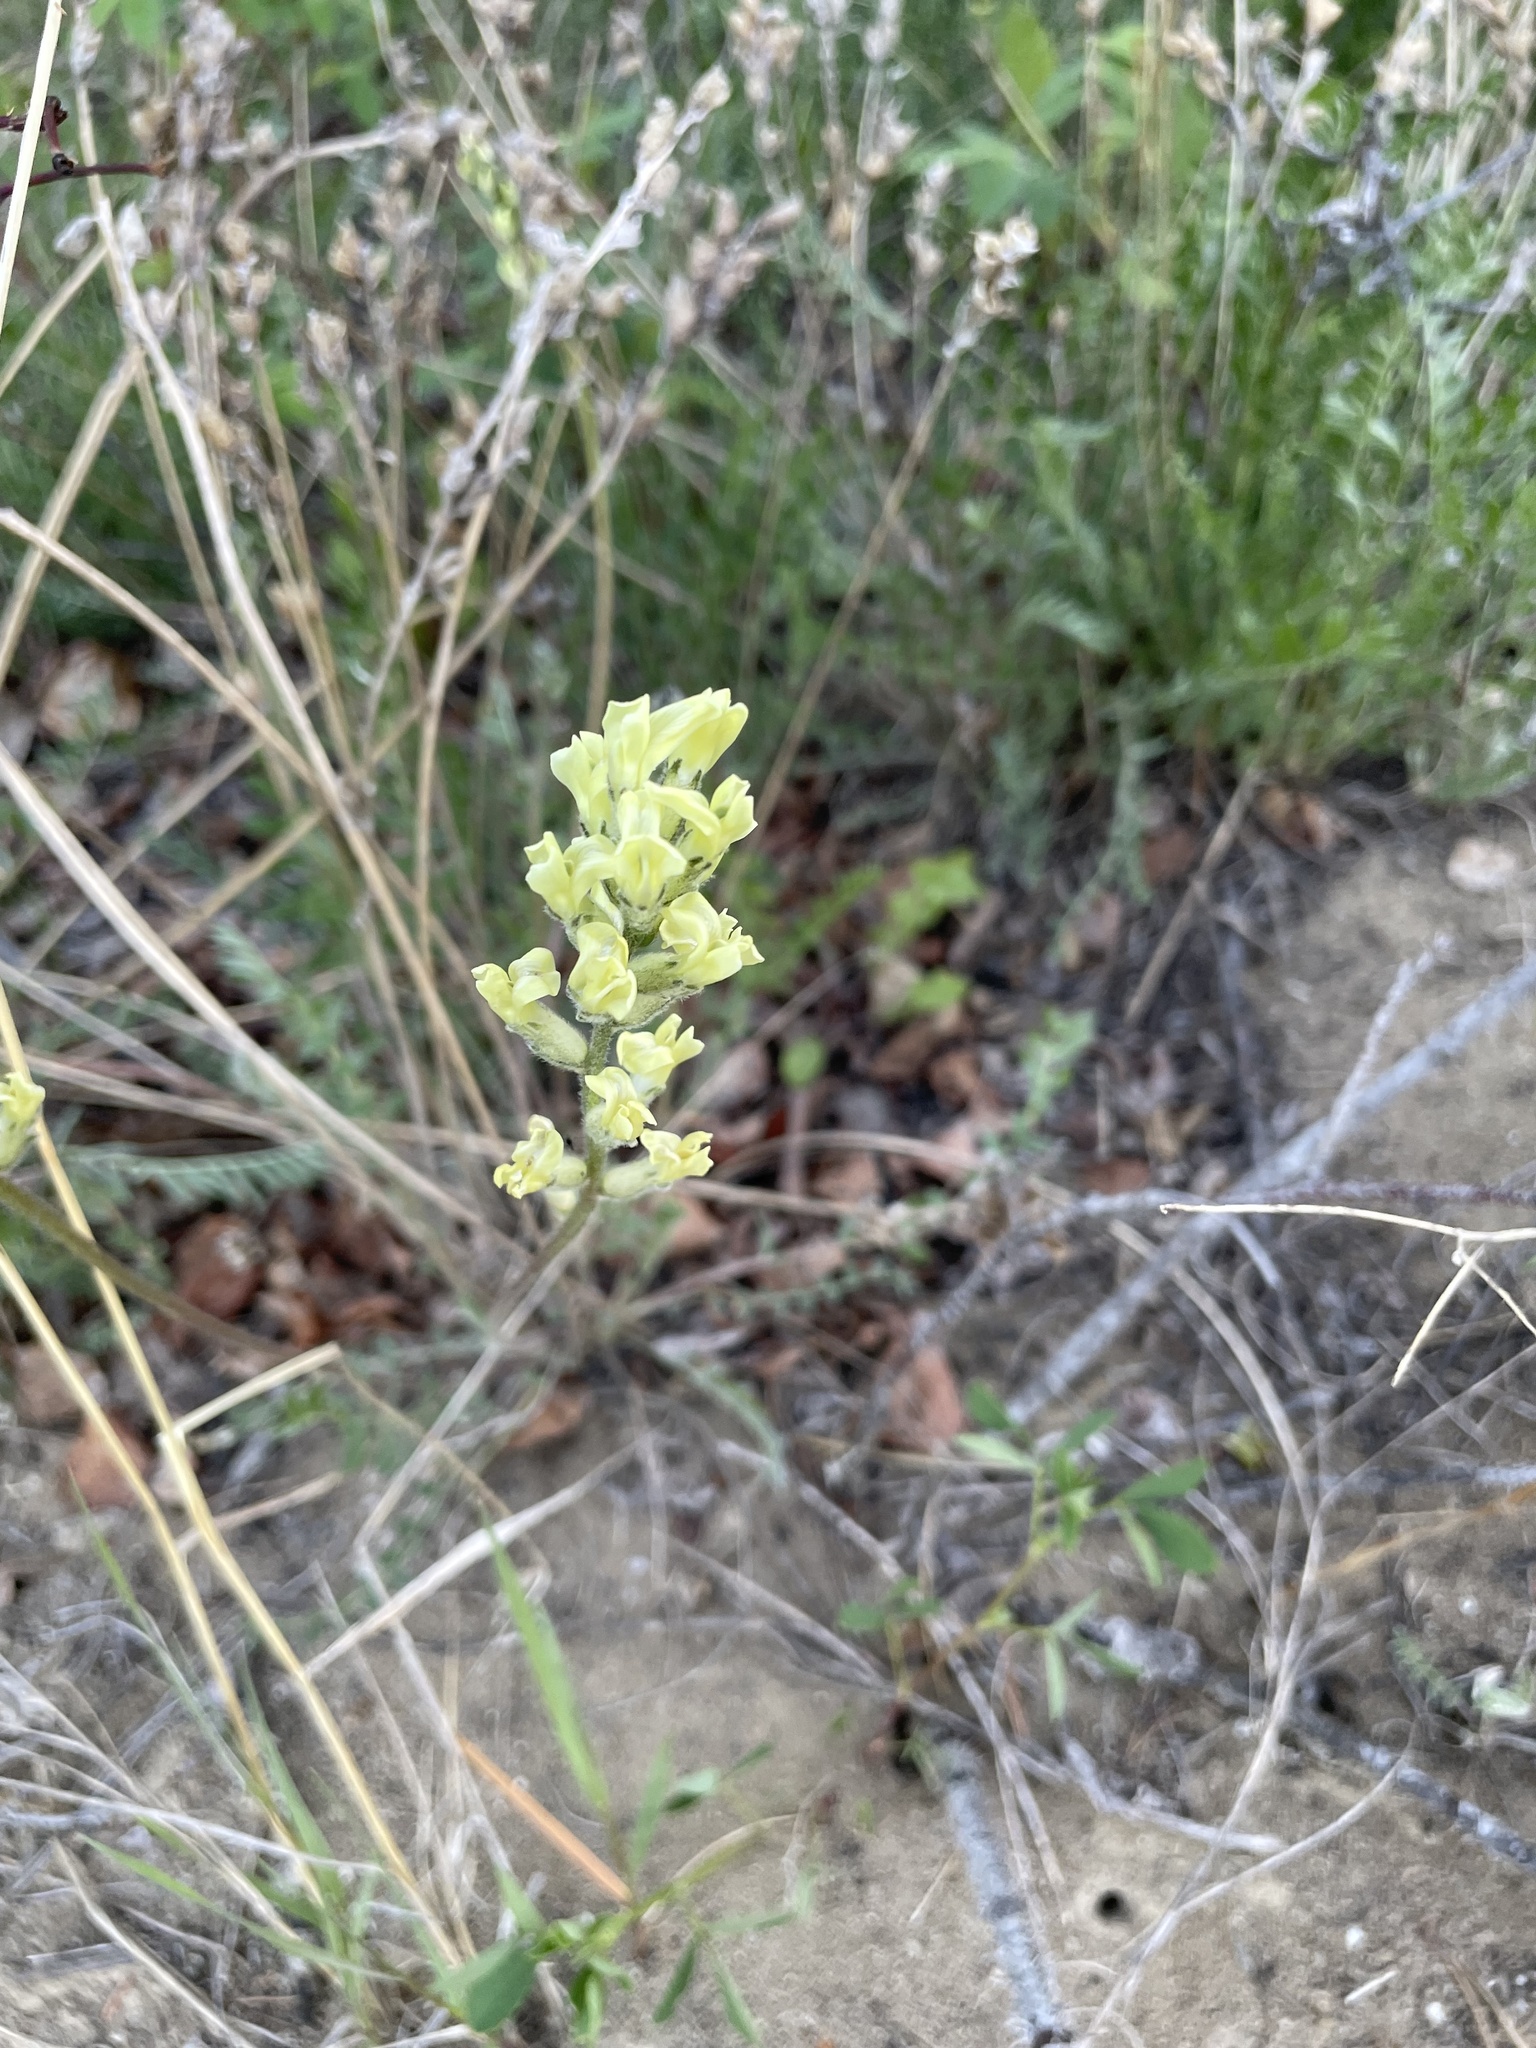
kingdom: Plantae
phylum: Tracheophyta
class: Magnoliopsida
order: Fabales
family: Fabaceae
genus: Oxytropis
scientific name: Oxytropis campestris
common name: Field locoweed
